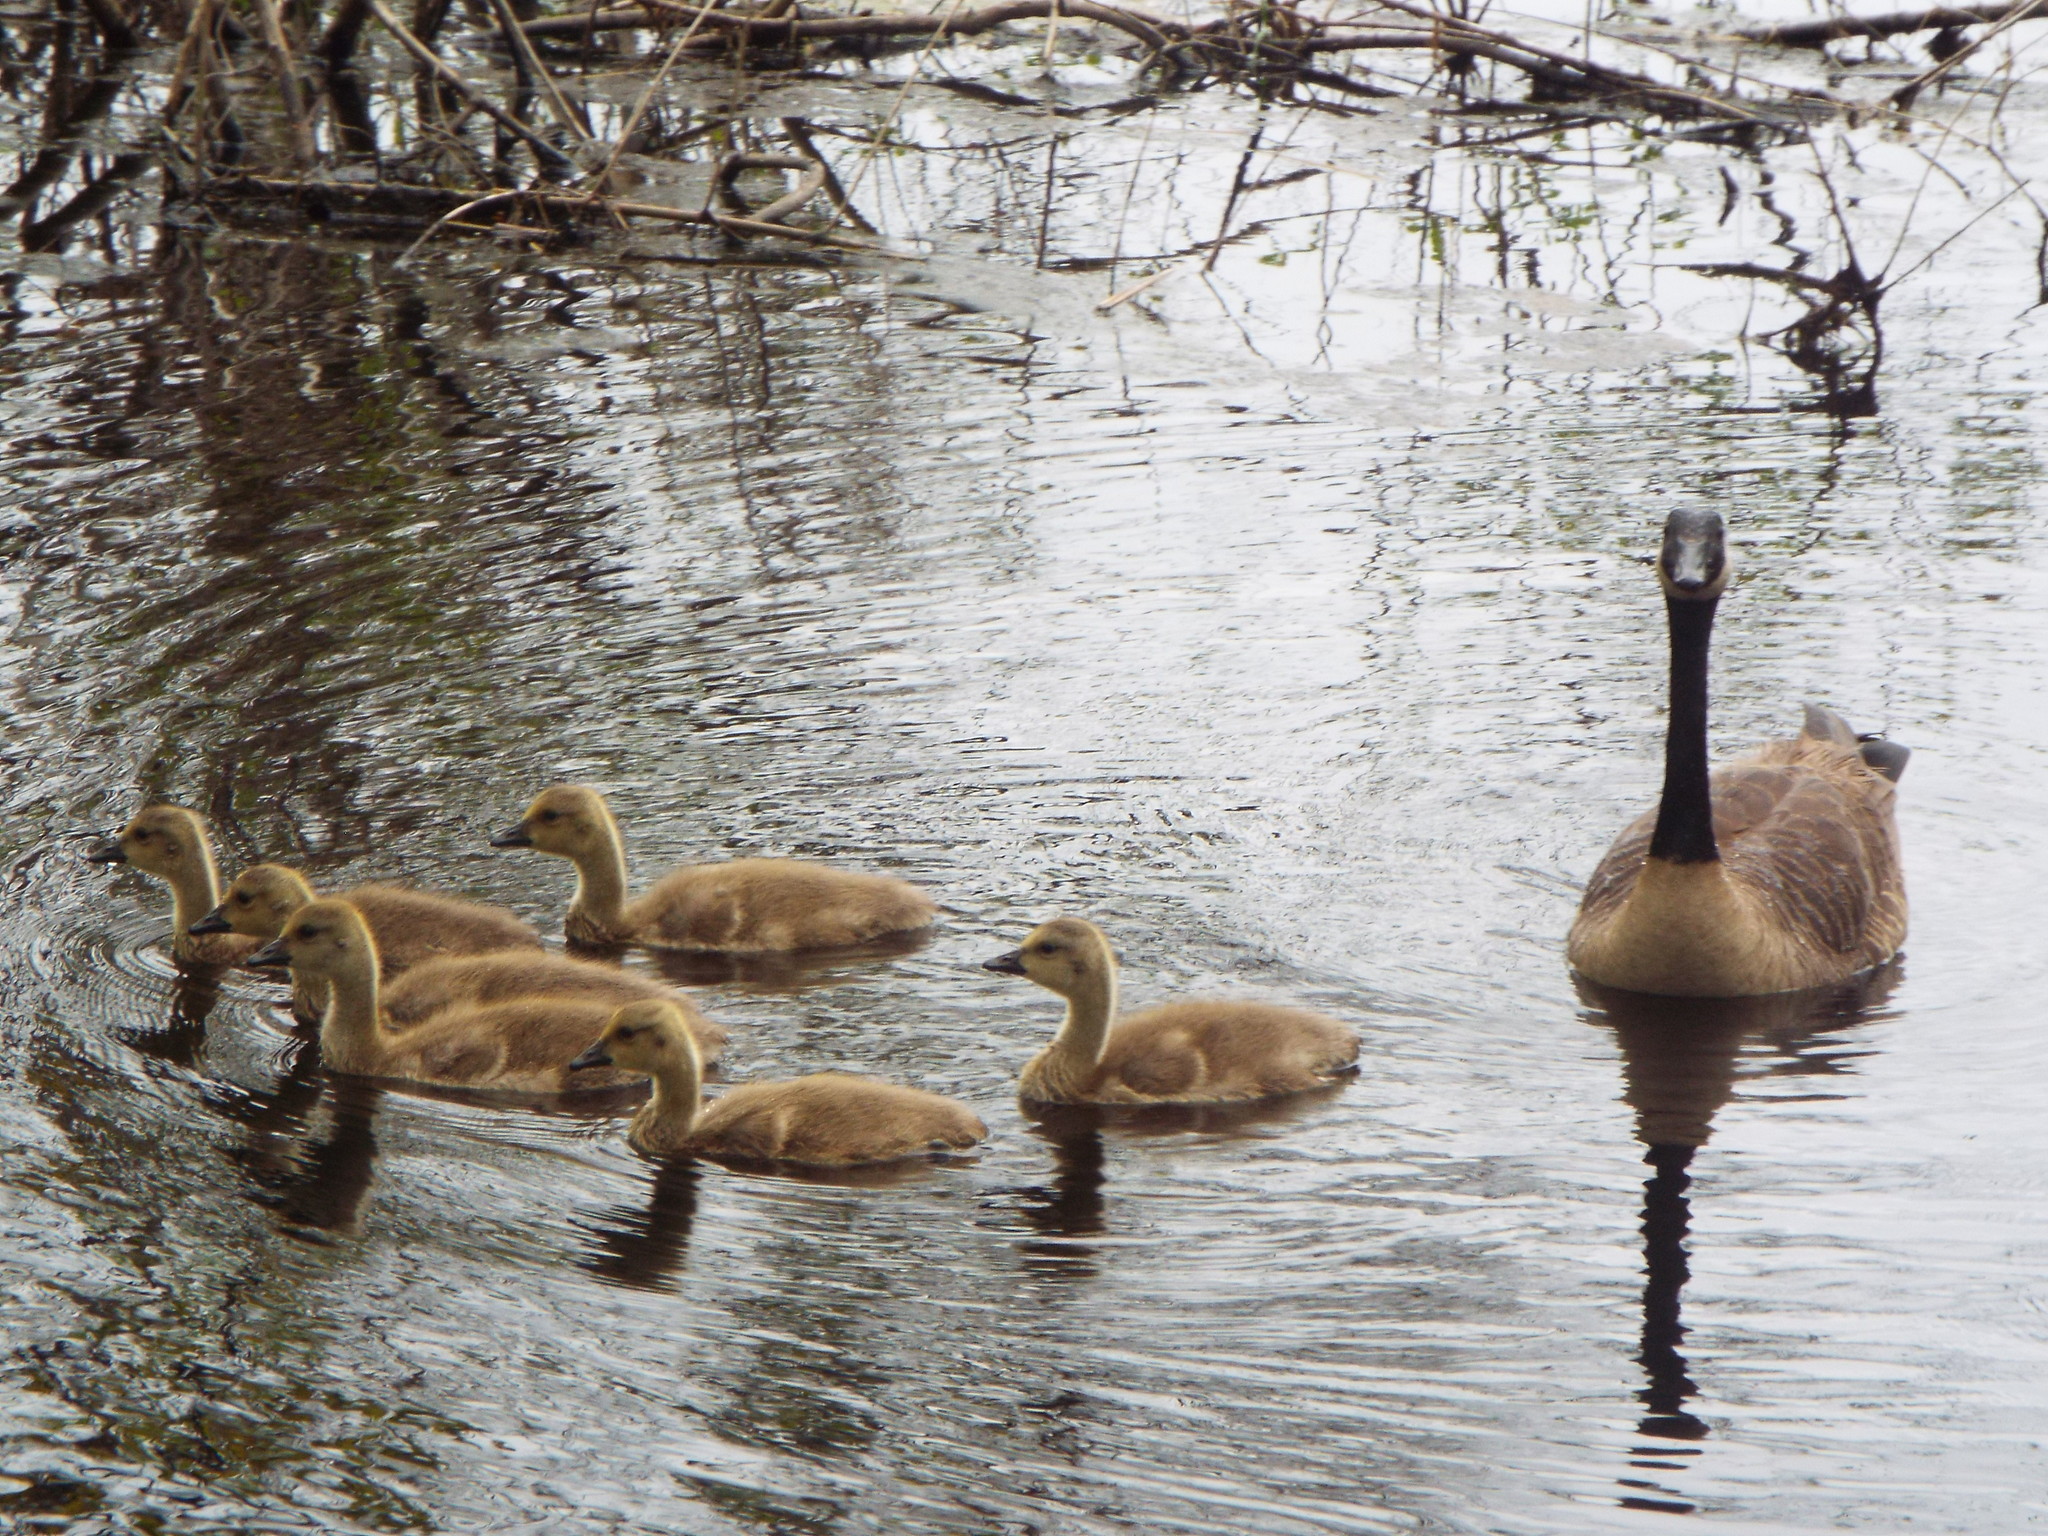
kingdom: Animalia
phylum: Chordata
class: Aves
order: Anseriformes
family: Anatidae
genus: Branta
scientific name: Branta canadensis
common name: Canada goose
